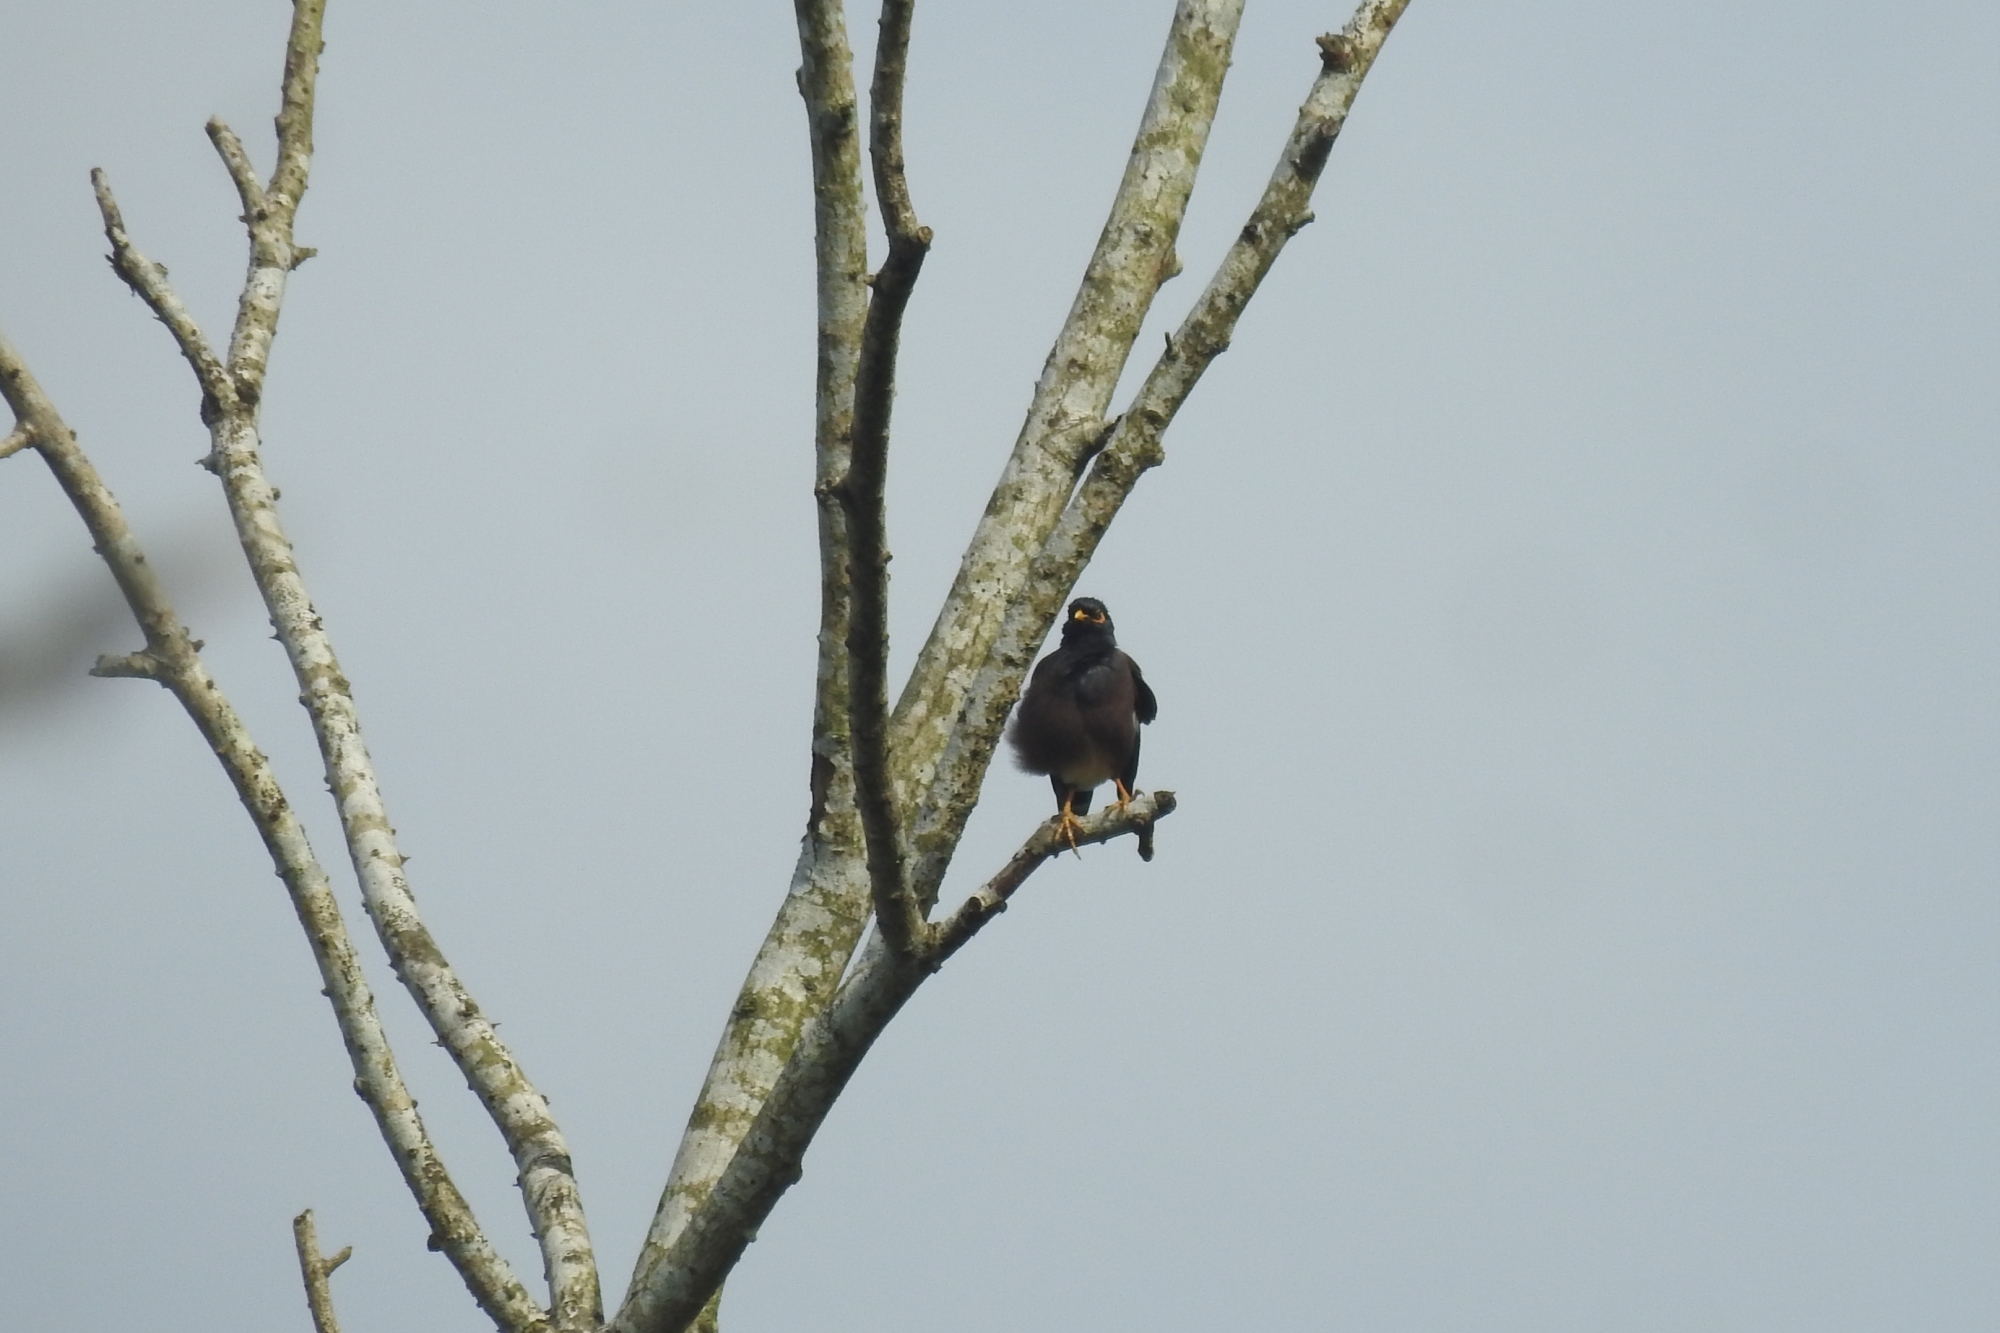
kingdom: Animalia
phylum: Chordata
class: Aves
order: Passeriformes
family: Sturnidae
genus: Acridotheres
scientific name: Acridotheres tristis
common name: Common myna
